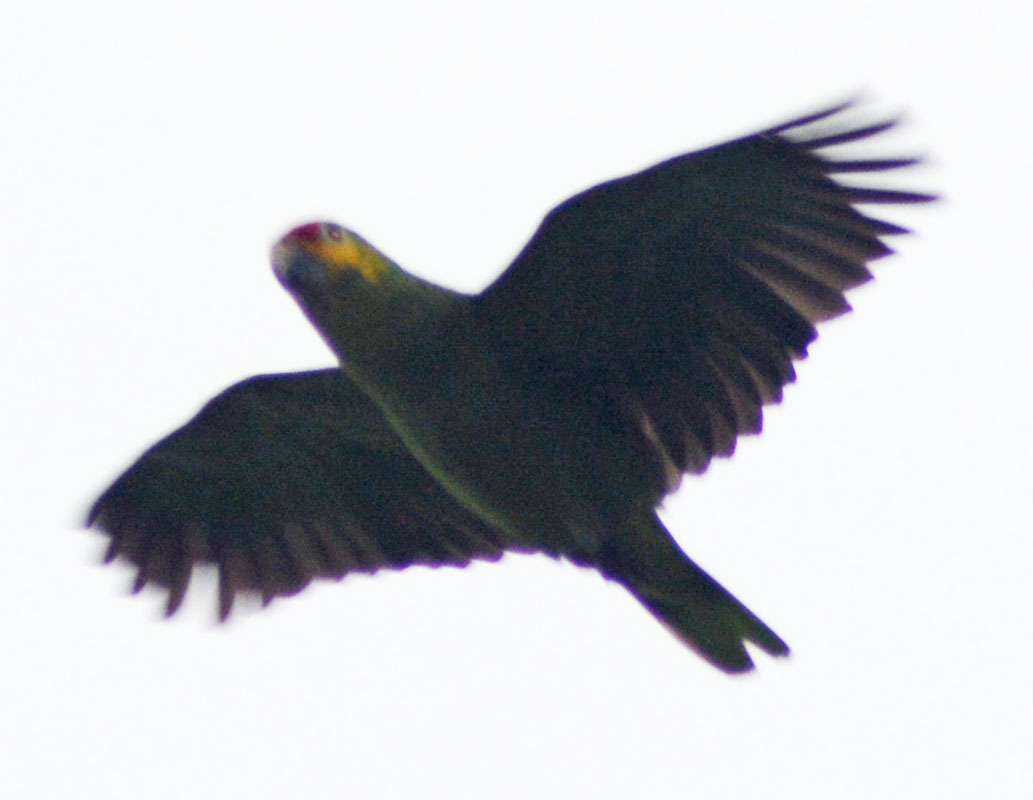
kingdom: Animalia
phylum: Chordata
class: Aves
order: Psittaciformes
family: Psittacidae
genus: Amazona
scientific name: Amazona autumnalis
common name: Red-lored amazon
